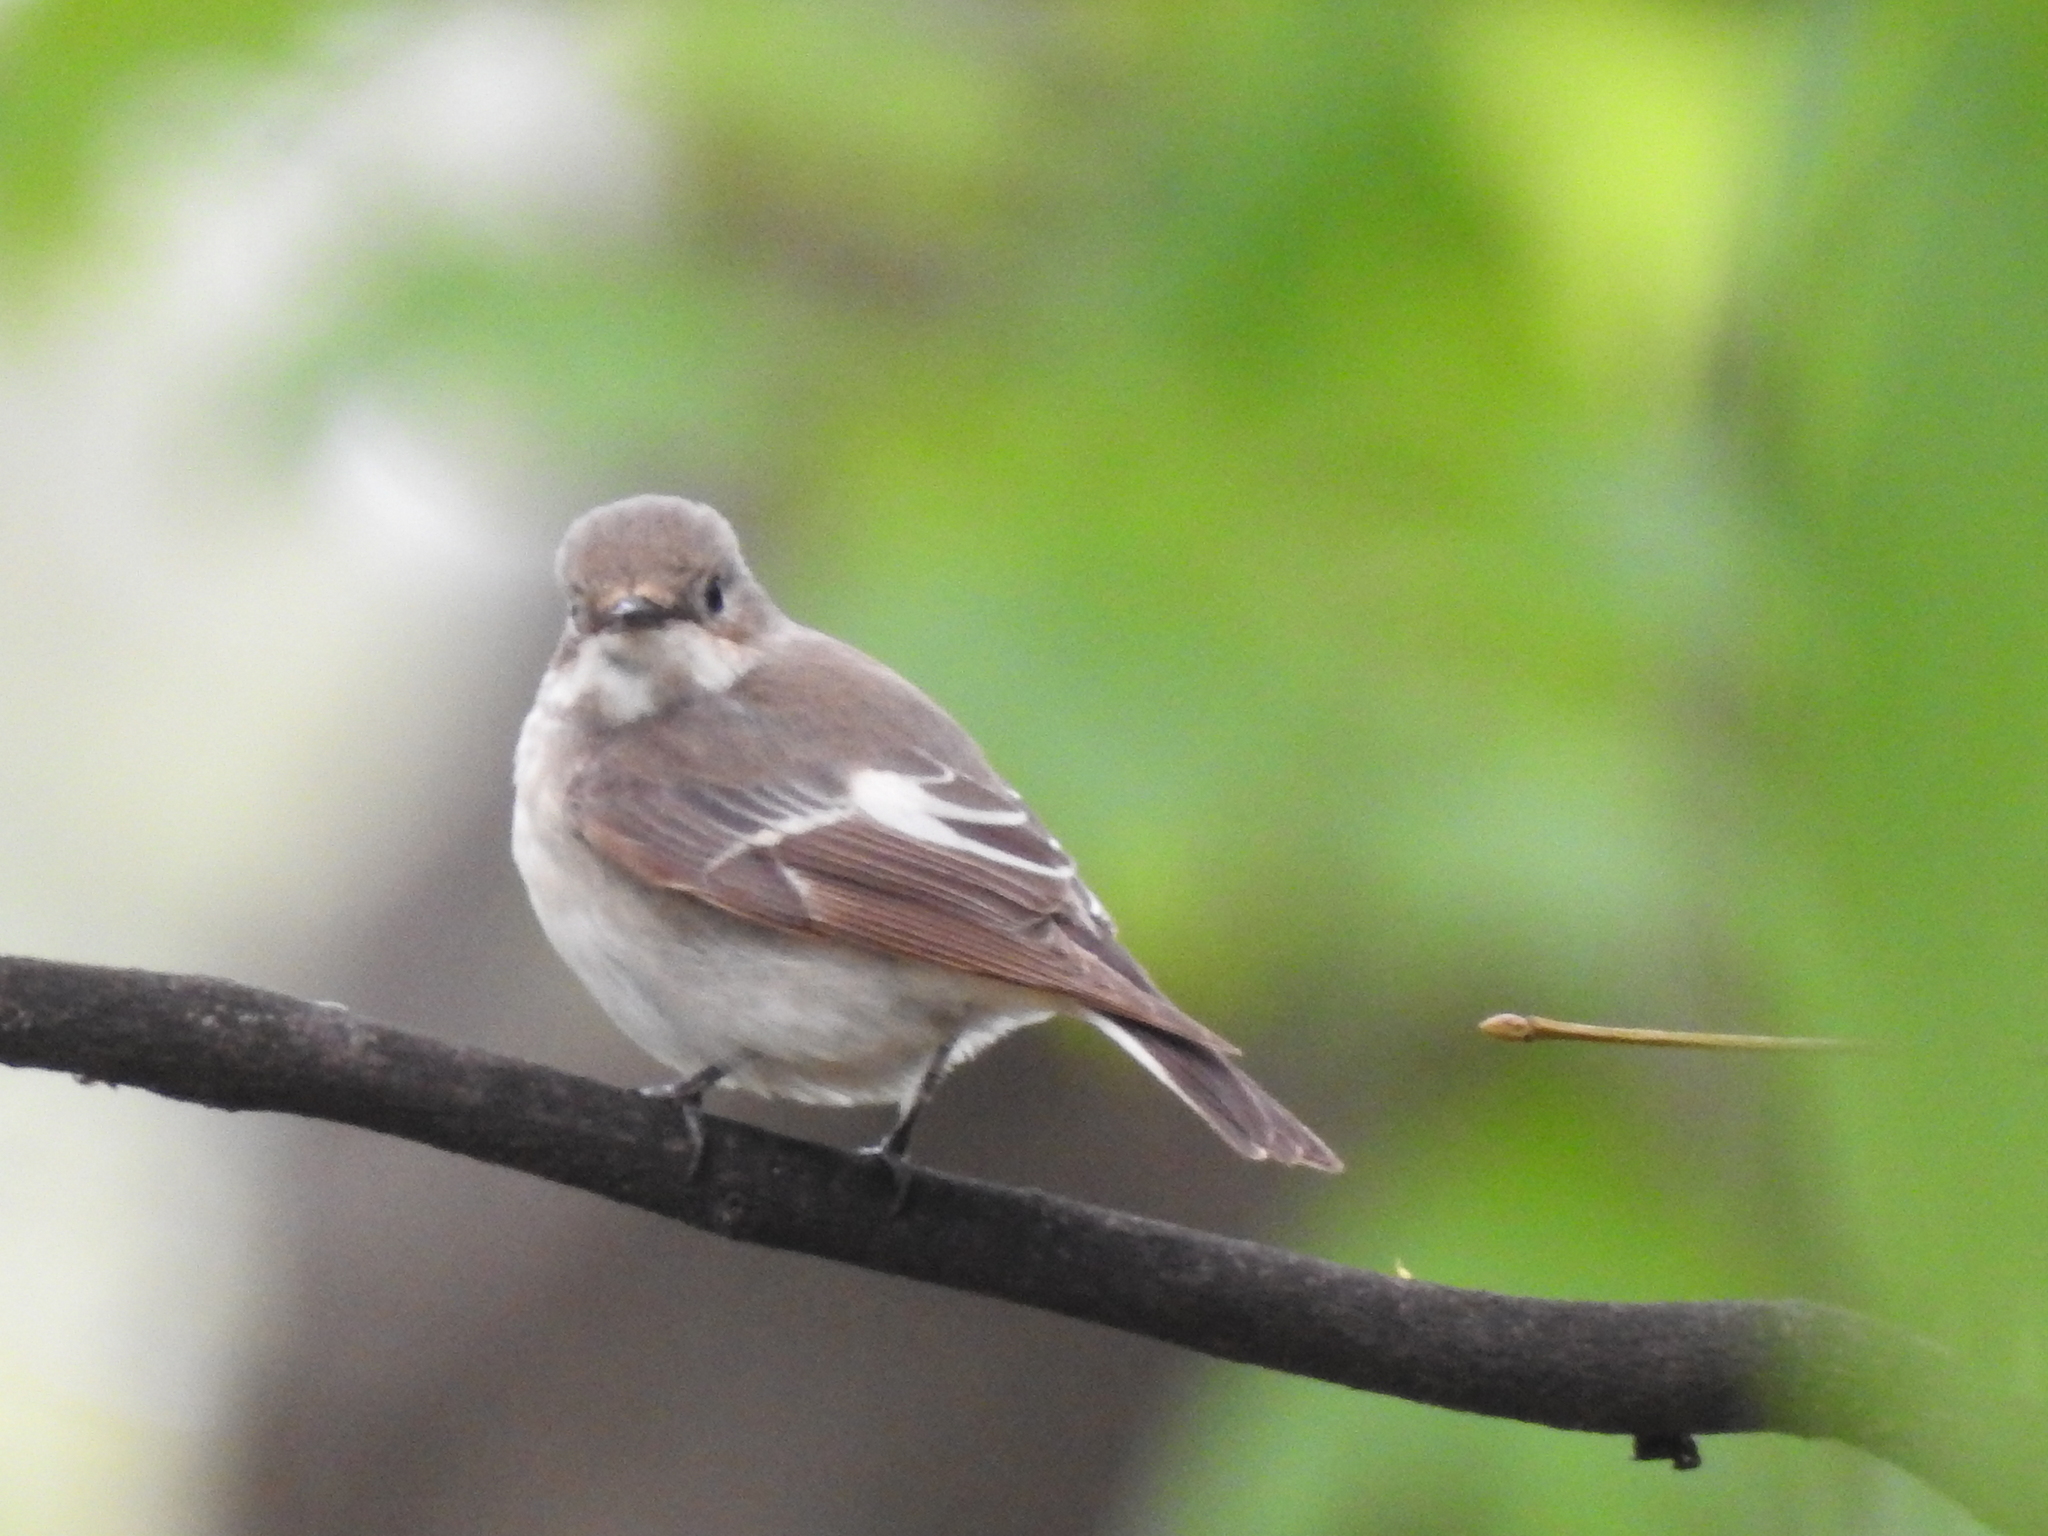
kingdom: Animalia
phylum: Chordata
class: Aves
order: Passeriformes
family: Muscicapidae
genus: Ficedula
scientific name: Ficedula hypoleuca
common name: European pied flycatcher
